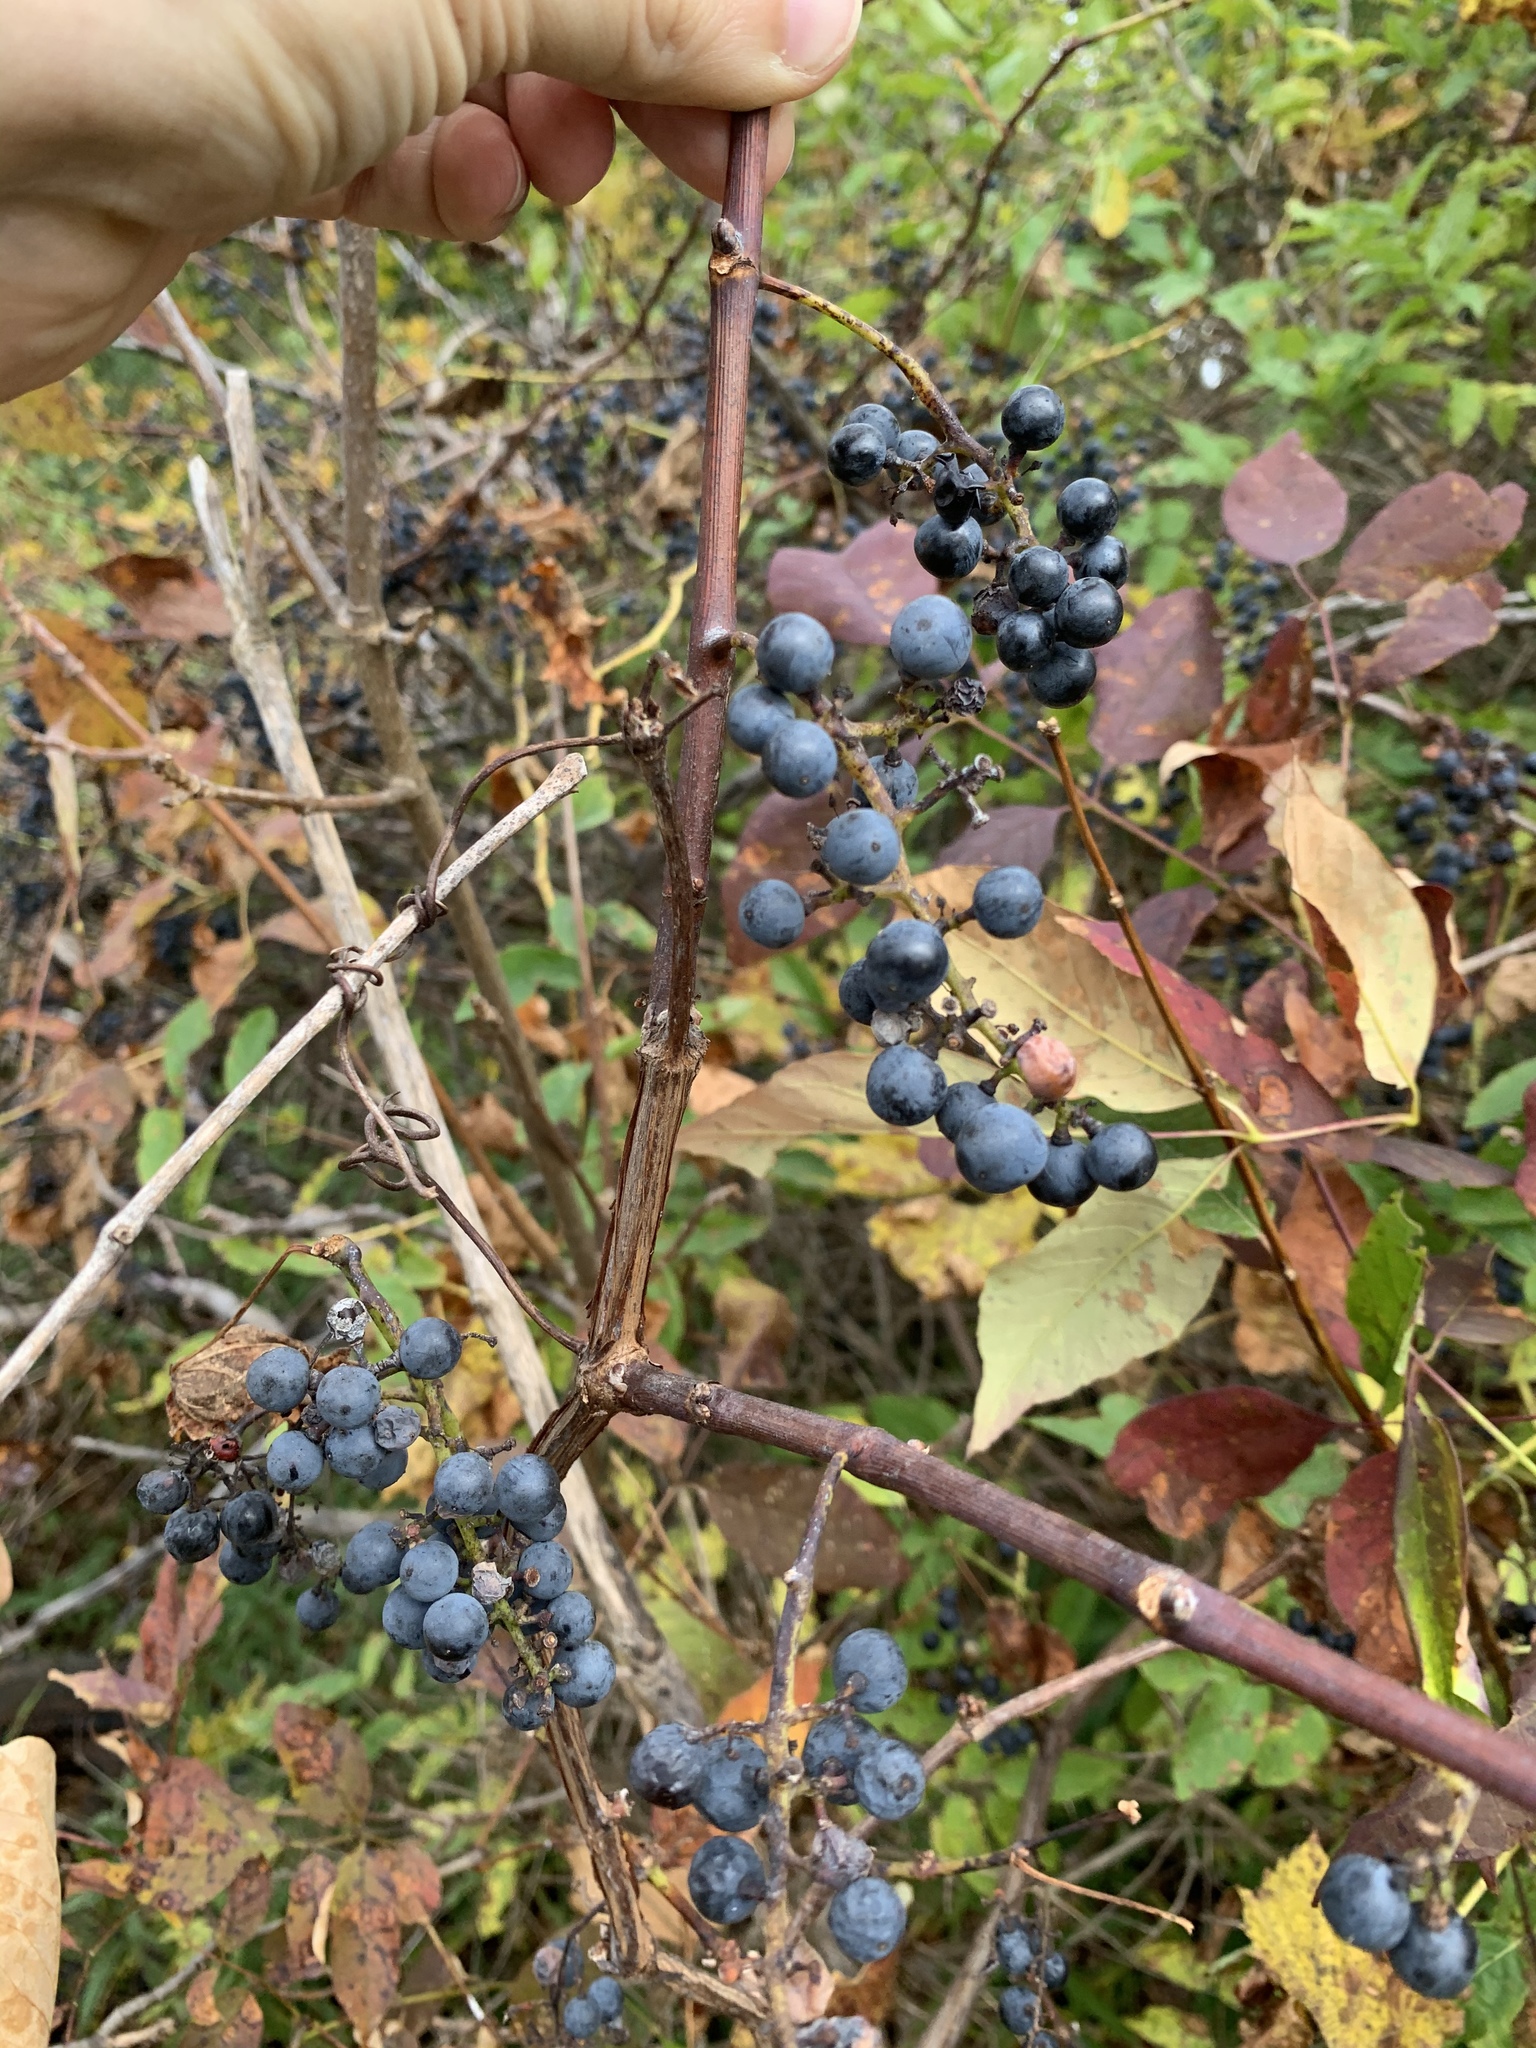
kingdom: Plantae
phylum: Tracheophyta
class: Magnoliopsida
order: Vitales
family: Vitaceae
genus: Vitis
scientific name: Vitis riparia
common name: Frost grape
